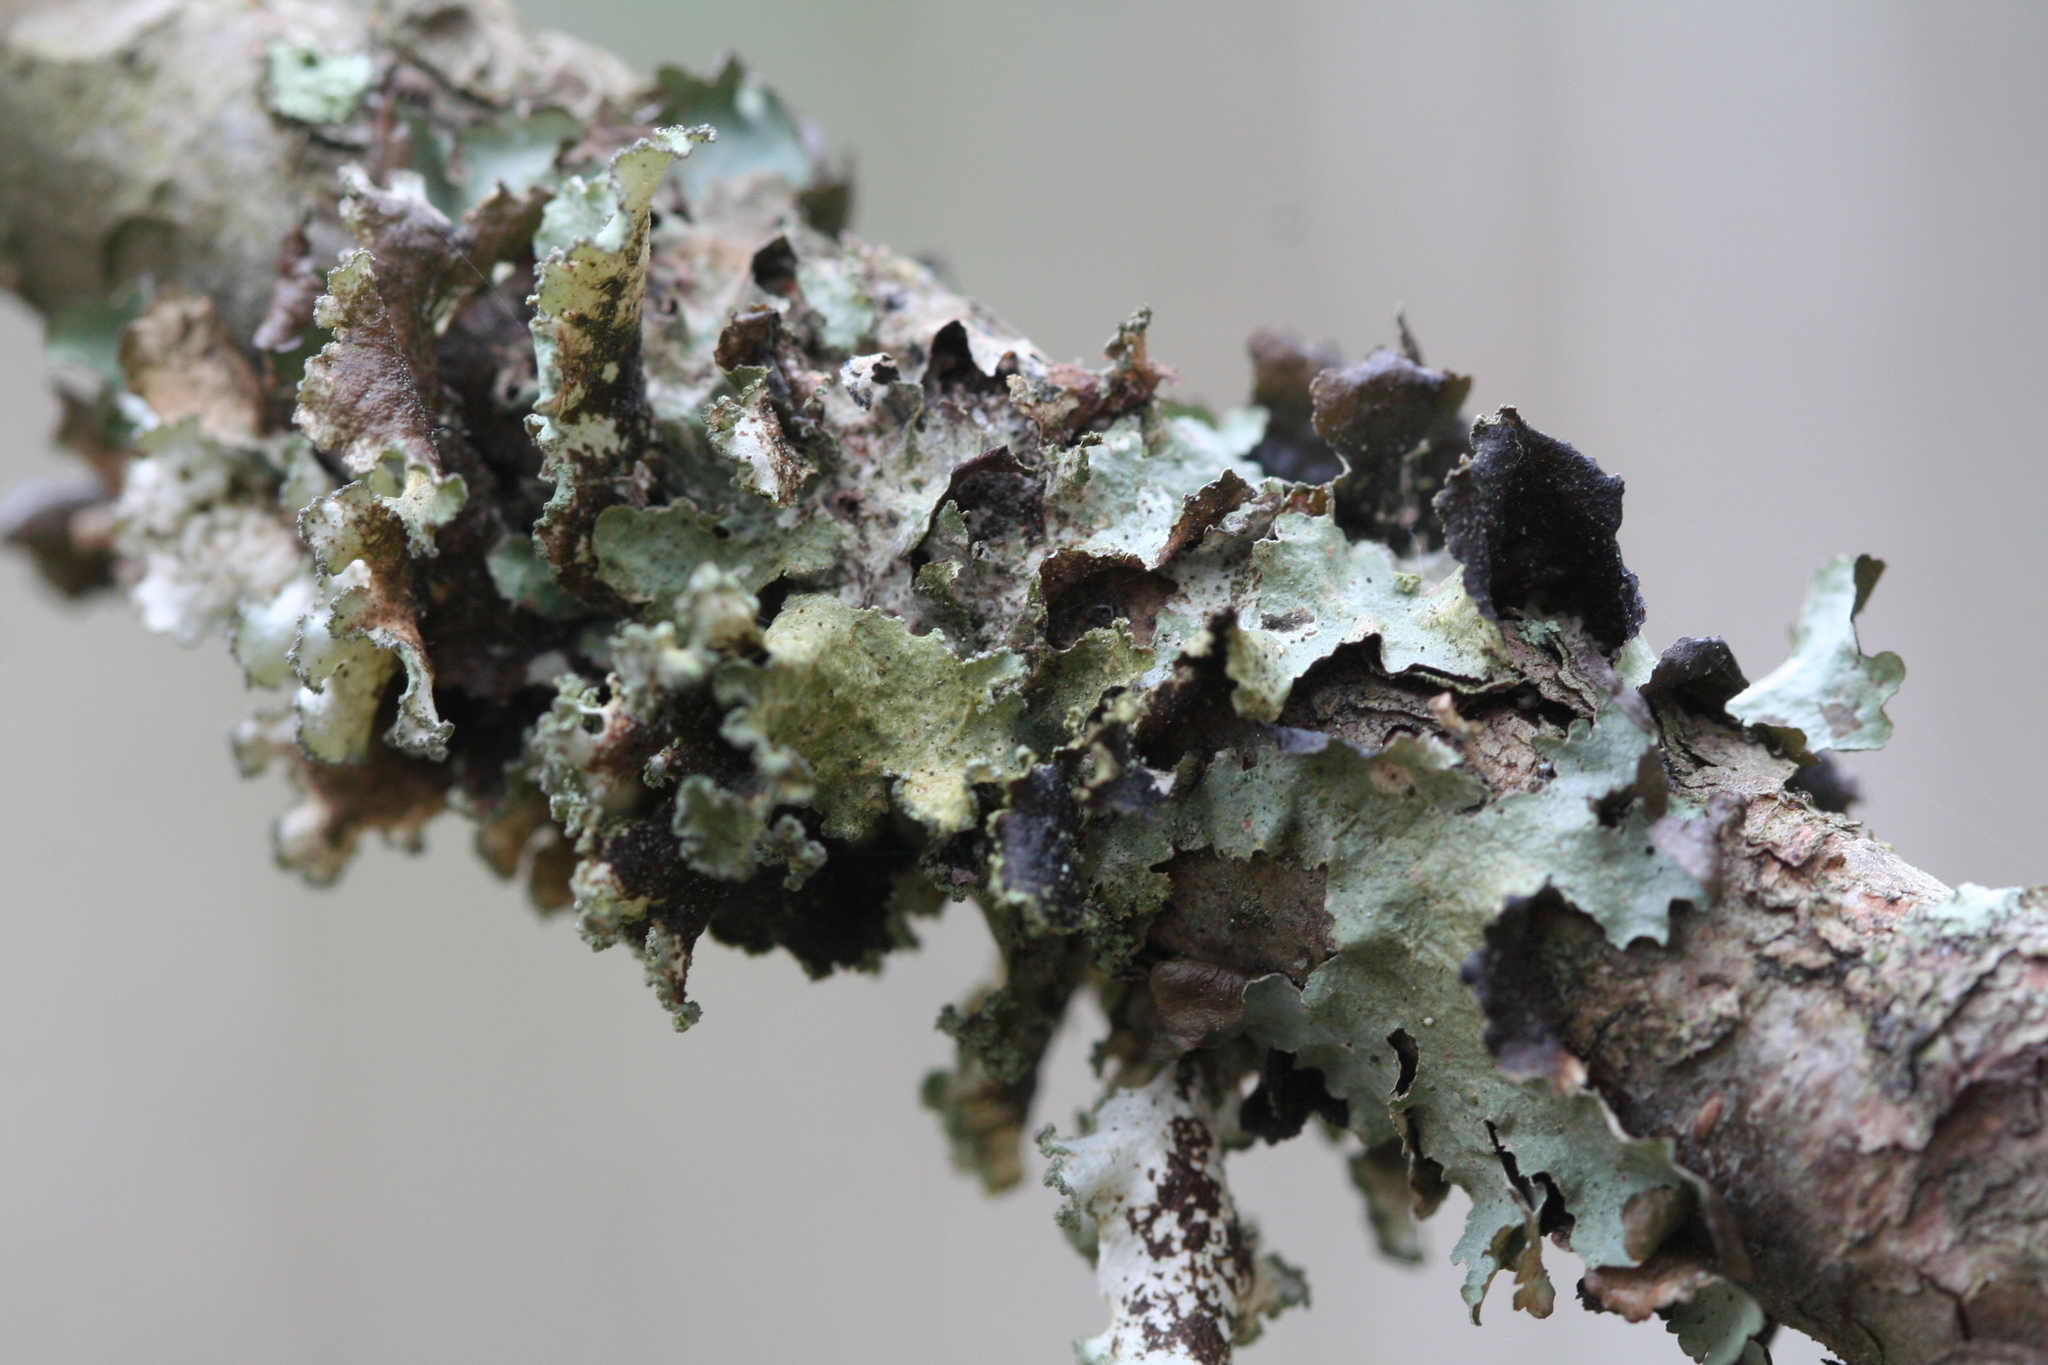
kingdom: Fungi
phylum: Ascomycota
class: Lecanoromycetes
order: Lecanorales
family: Parmeliaceae
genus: Platismatia
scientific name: Platismatia glauca
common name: Varied rag lichen
